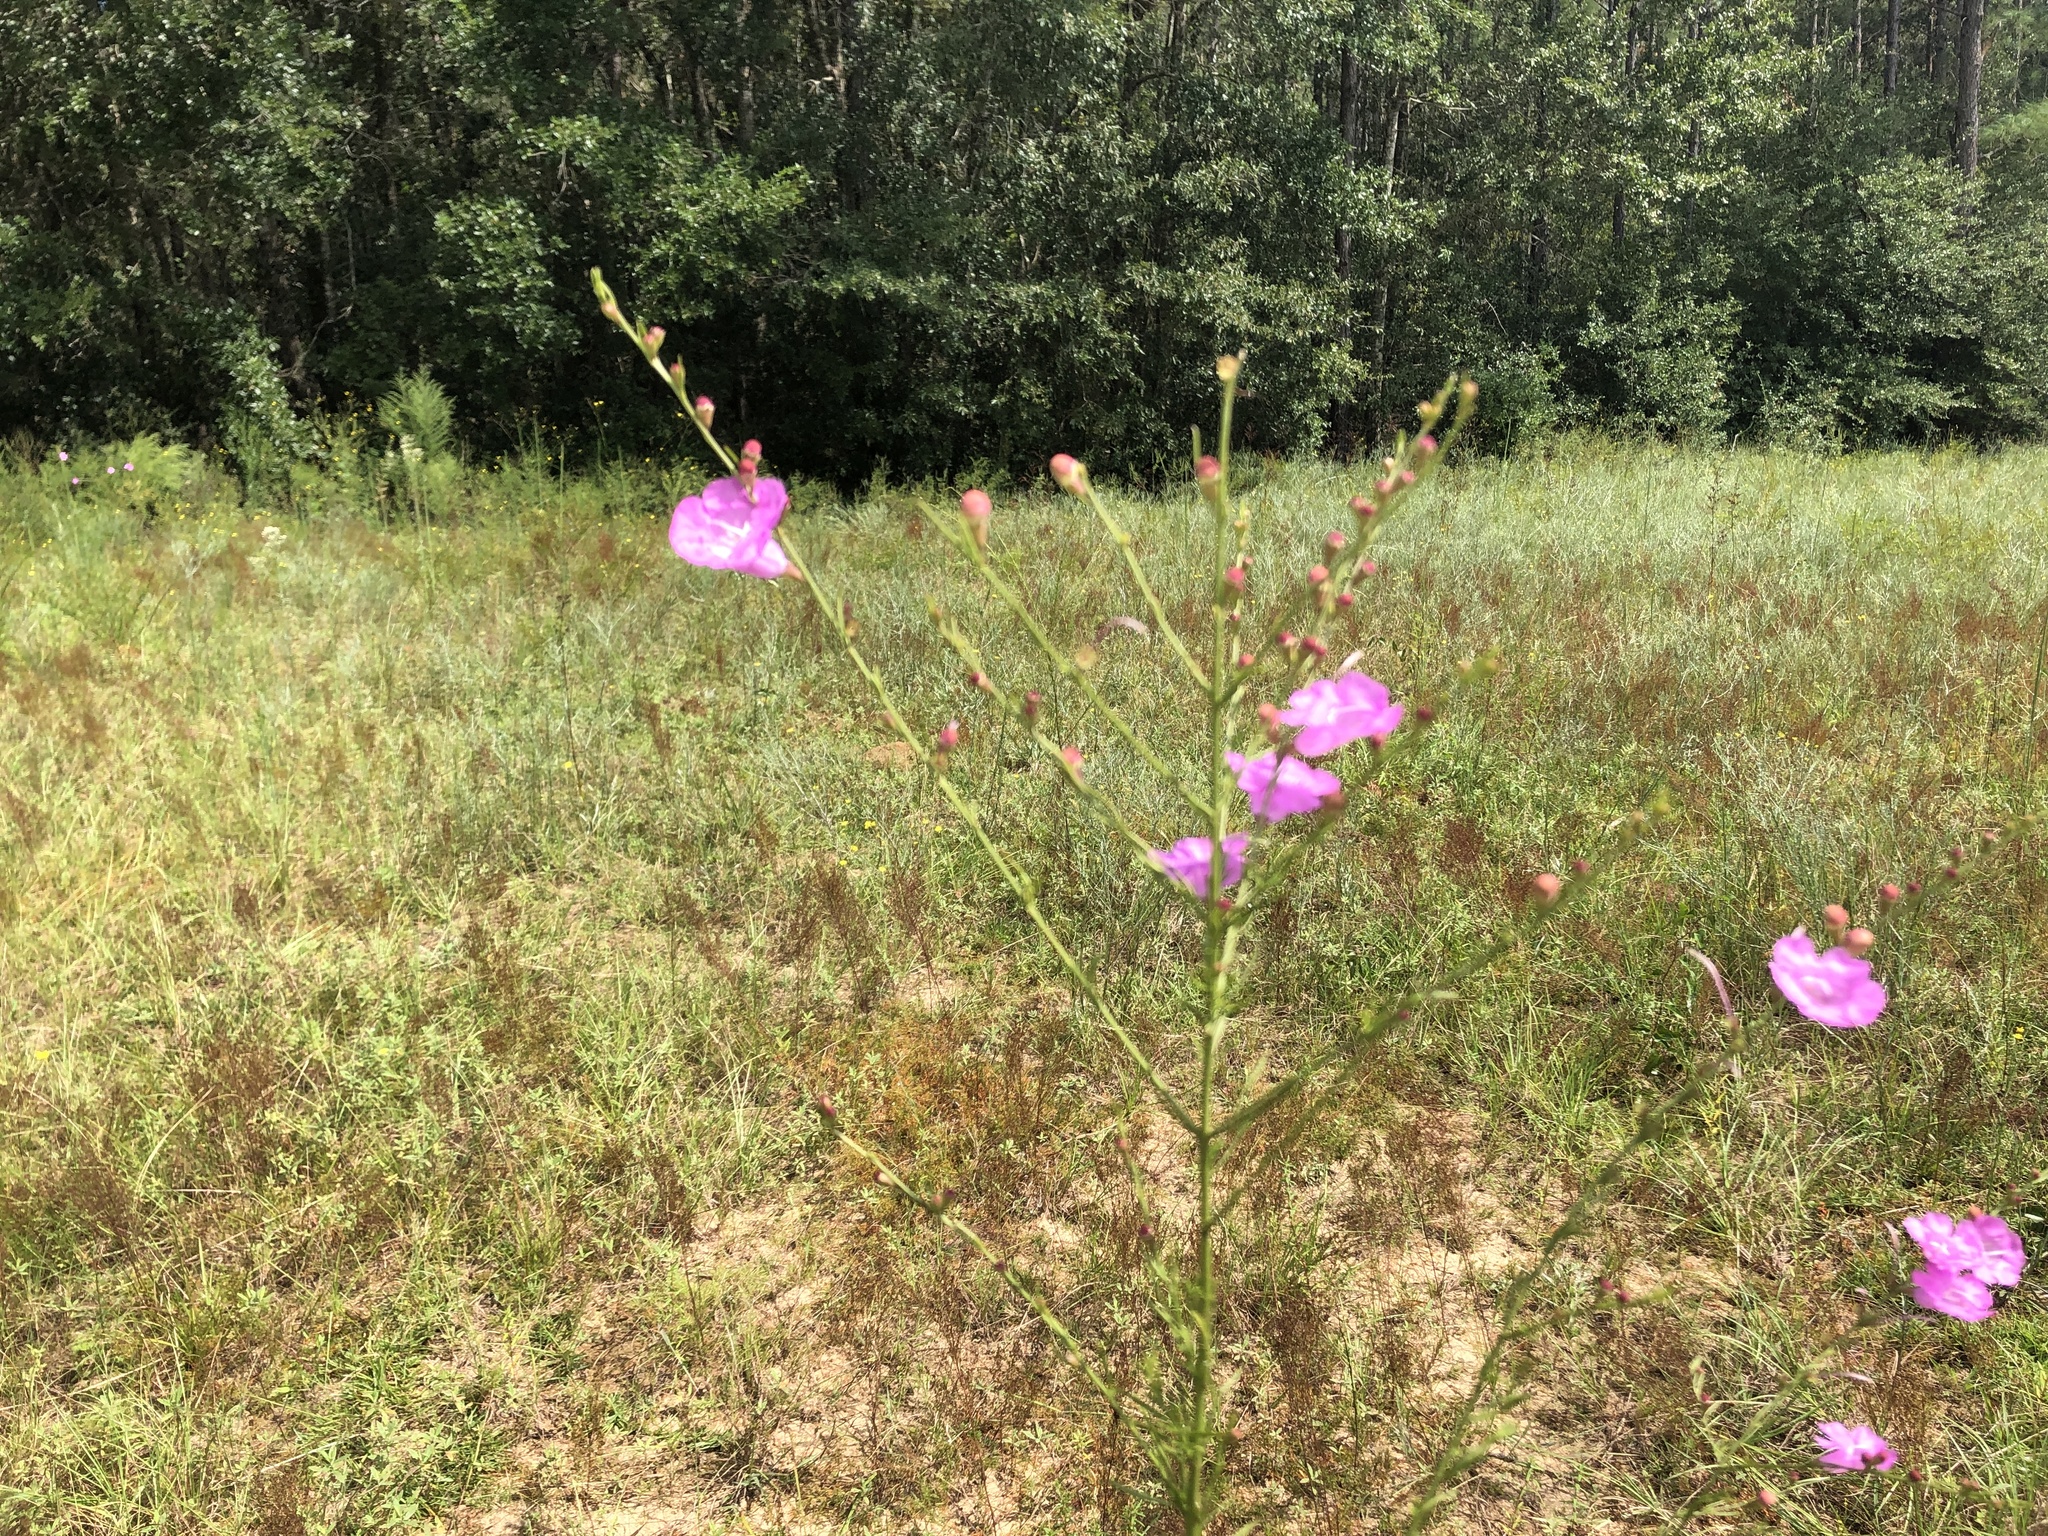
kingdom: Plantae
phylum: Tracheophyta
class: Magnoliopsida
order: Lamiales
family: Orobanchaceae
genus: Agalinis
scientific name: Agalinis fasciculata
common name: Beach false foxglove
